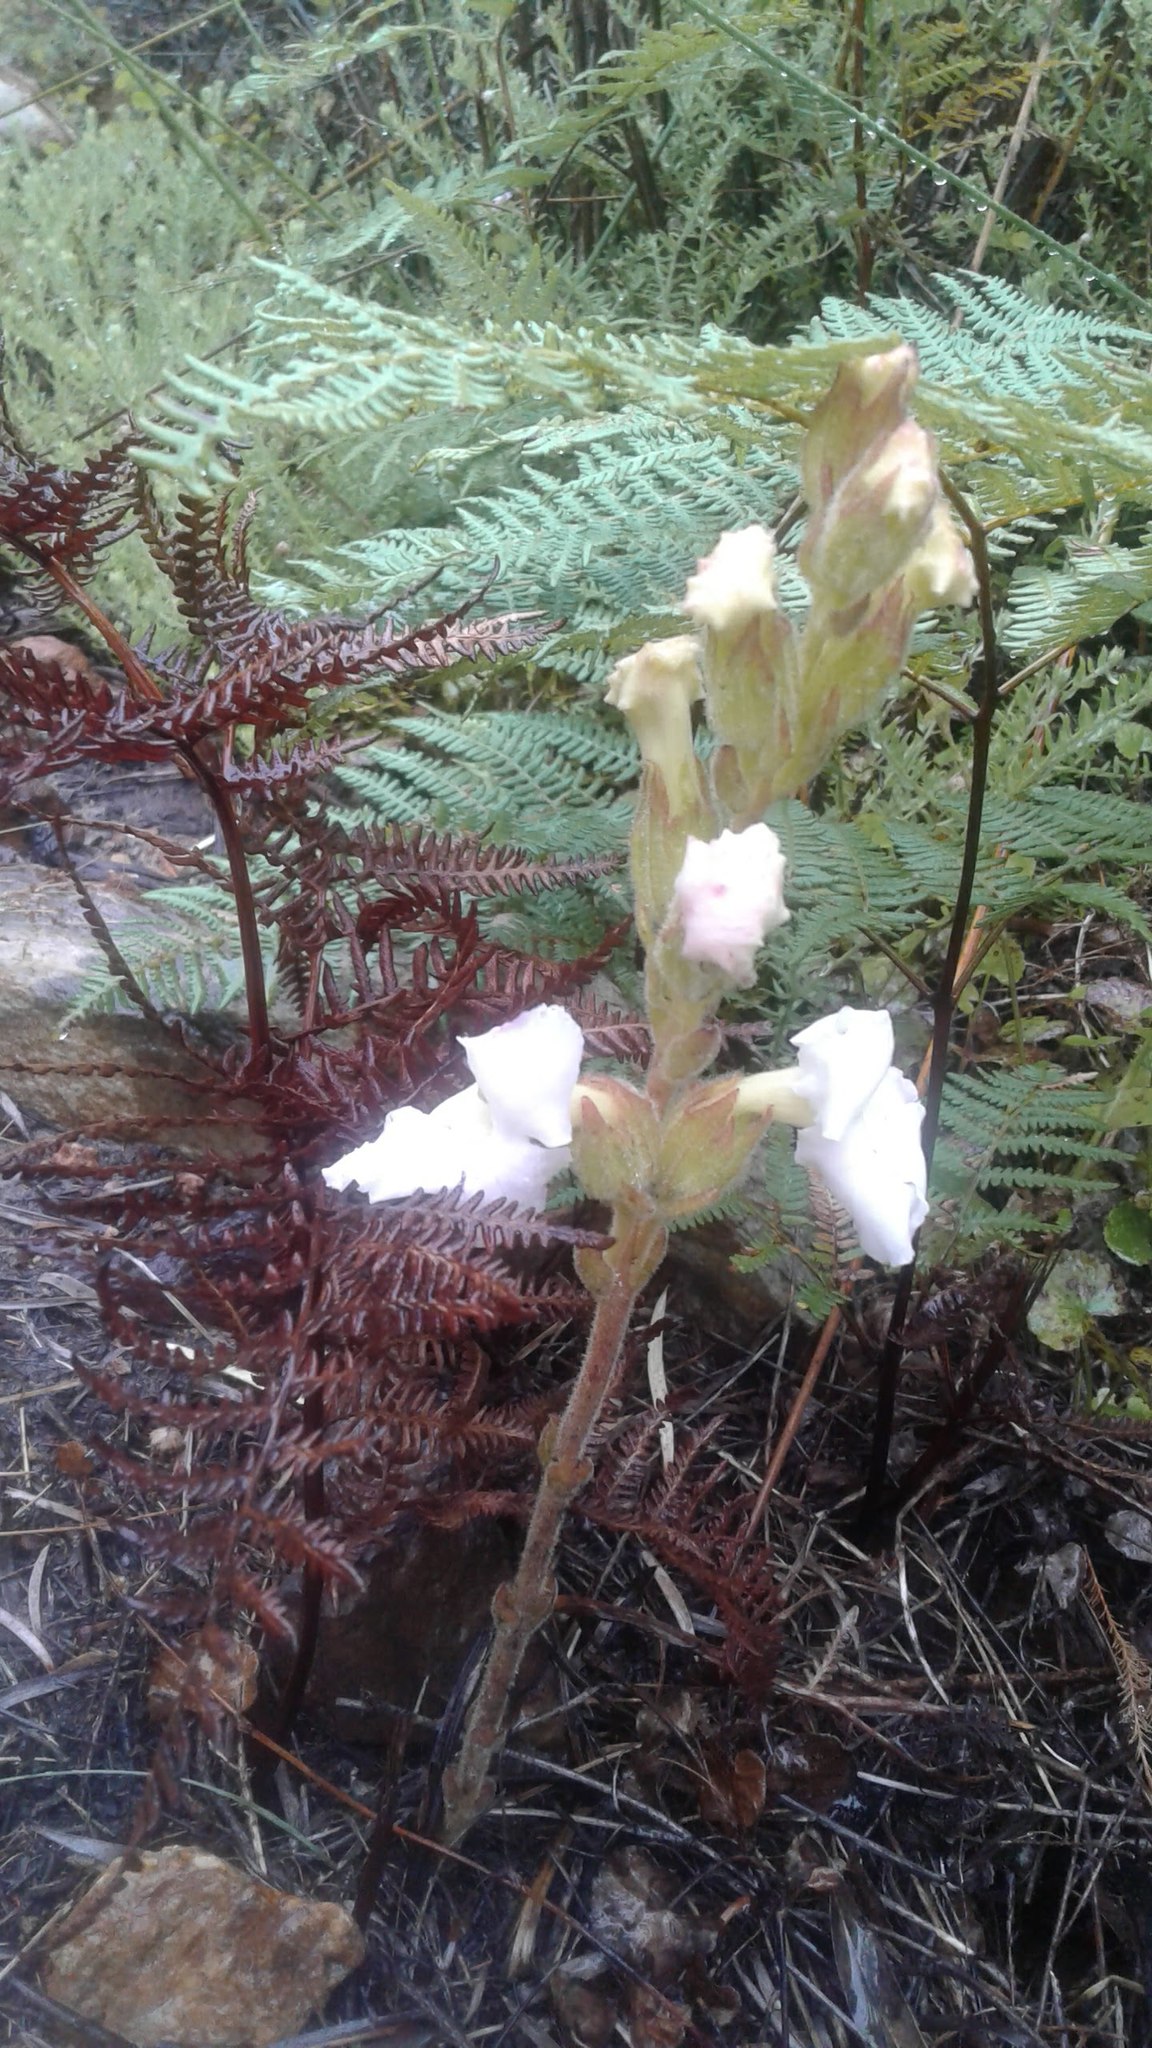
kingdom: Plantae
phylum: Tracheophyta
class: Magnoliopsida
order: Lamiales
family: Orobanchaceae
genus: Harveya
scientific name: Harveya capensis
